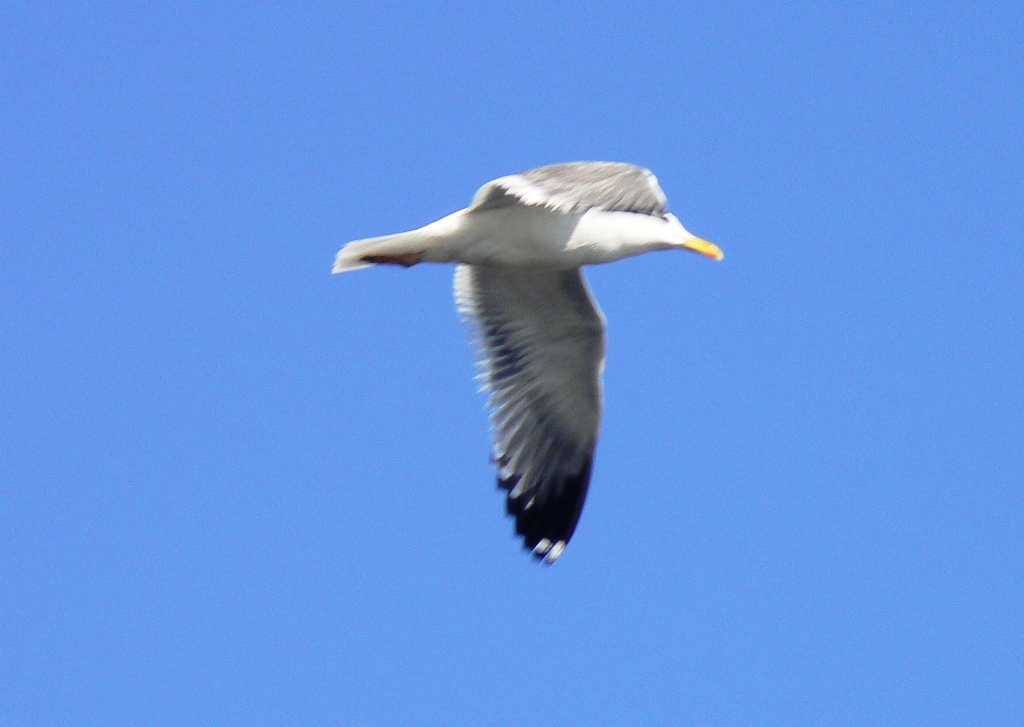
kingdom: Animalia
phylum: Chordata
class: Aves
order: Charadriiformes
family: Laridae
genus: Larus
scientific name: Larus fuscus
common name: Lesser black-backed gull
